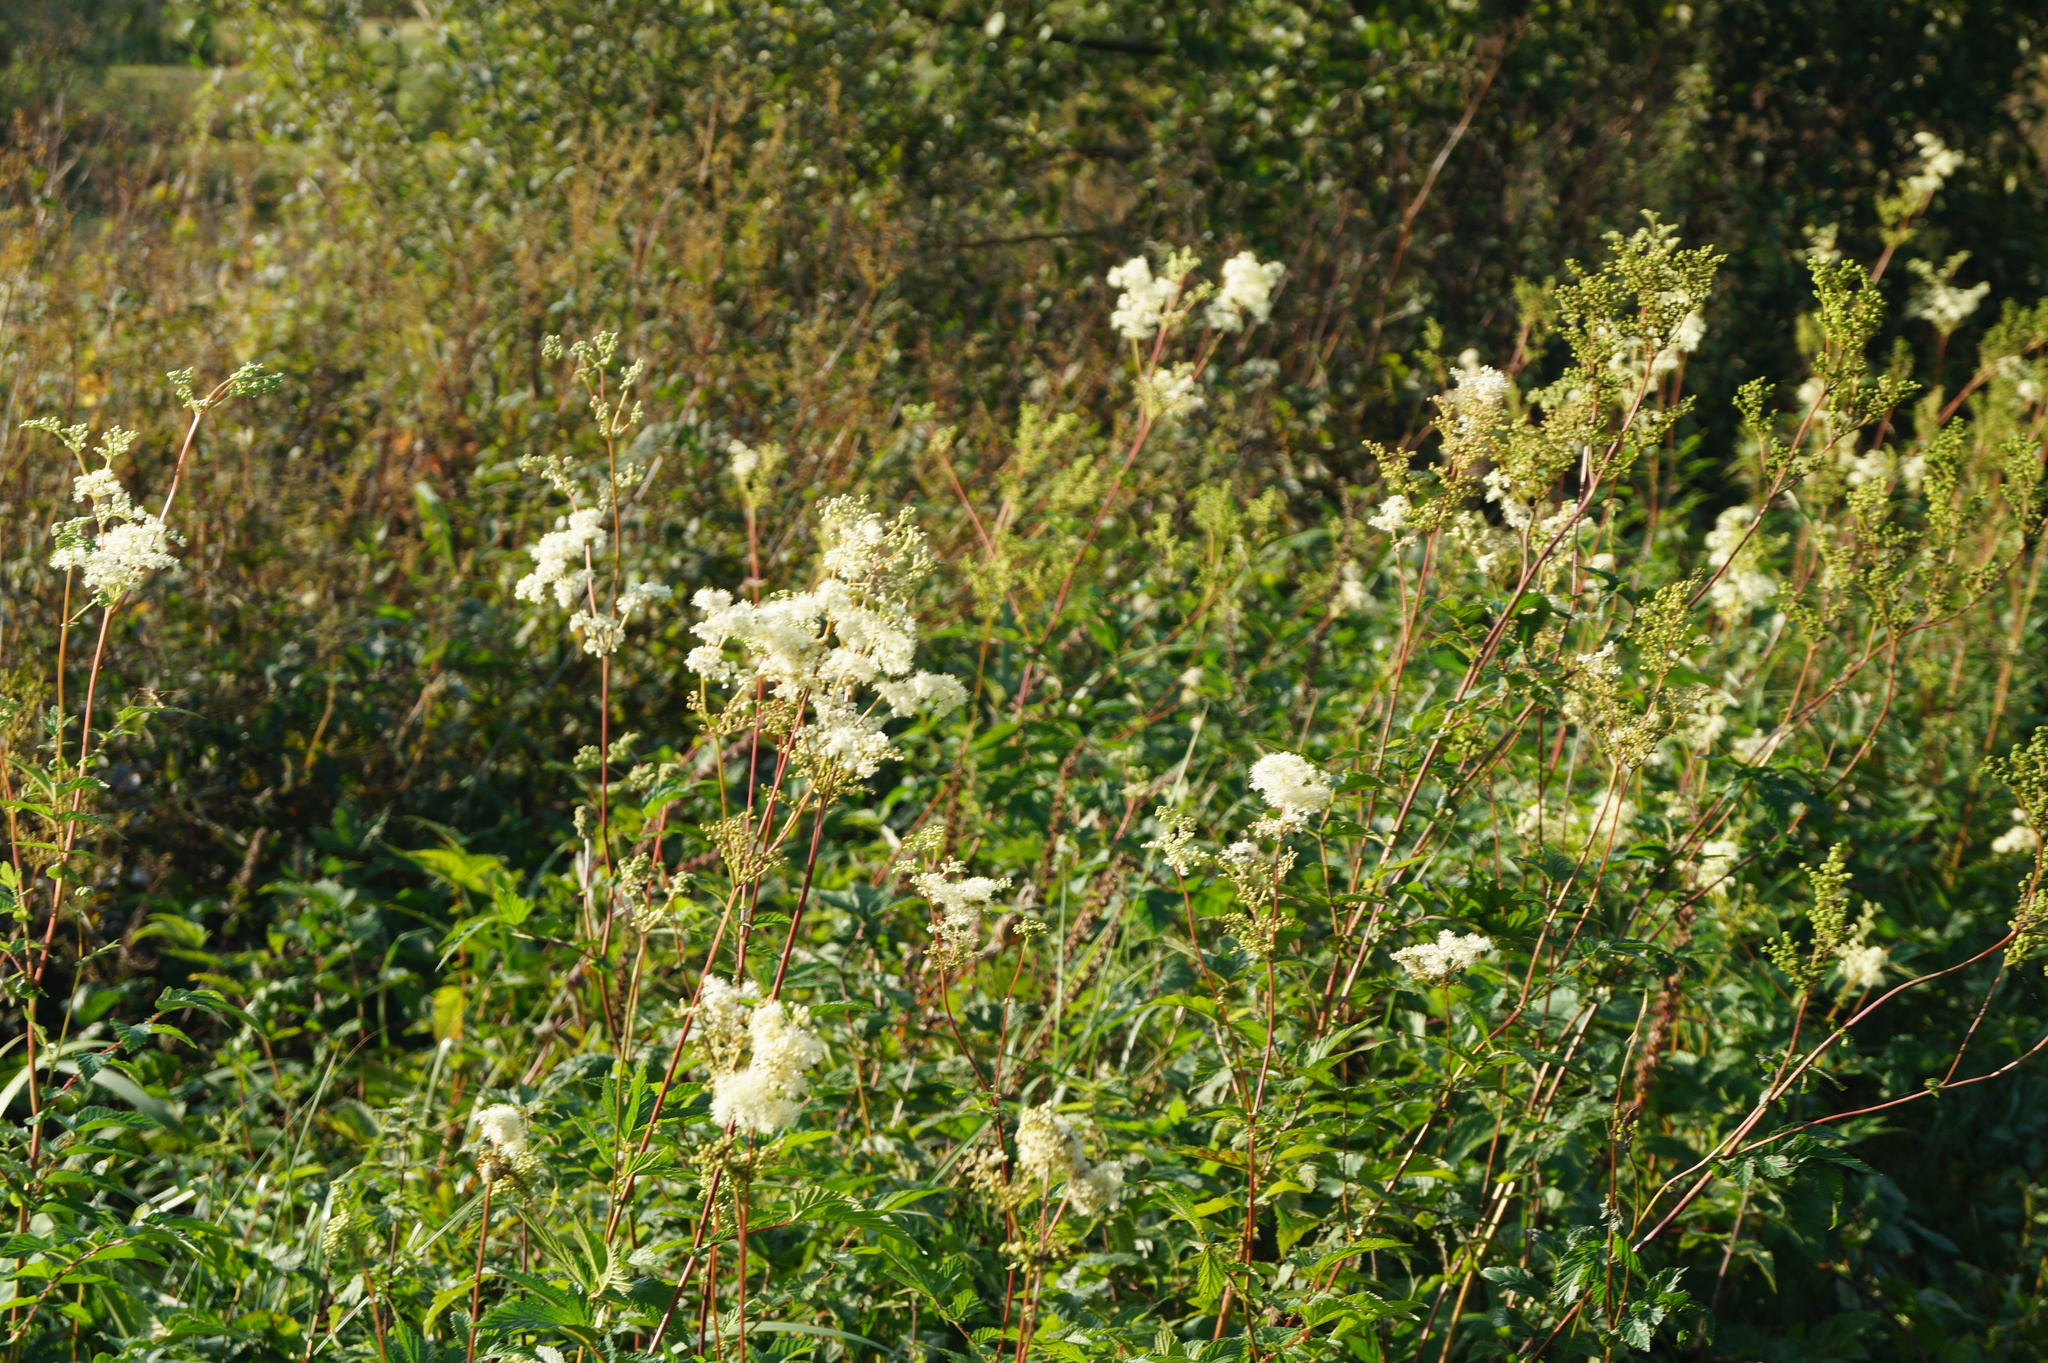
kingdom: Plantae
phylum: Tracheophyta
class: Magnoliopsida
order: Rosales
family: Rosaceae
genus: Filipendula
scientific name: Filipendula ulmaria
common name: Meadowsweet
